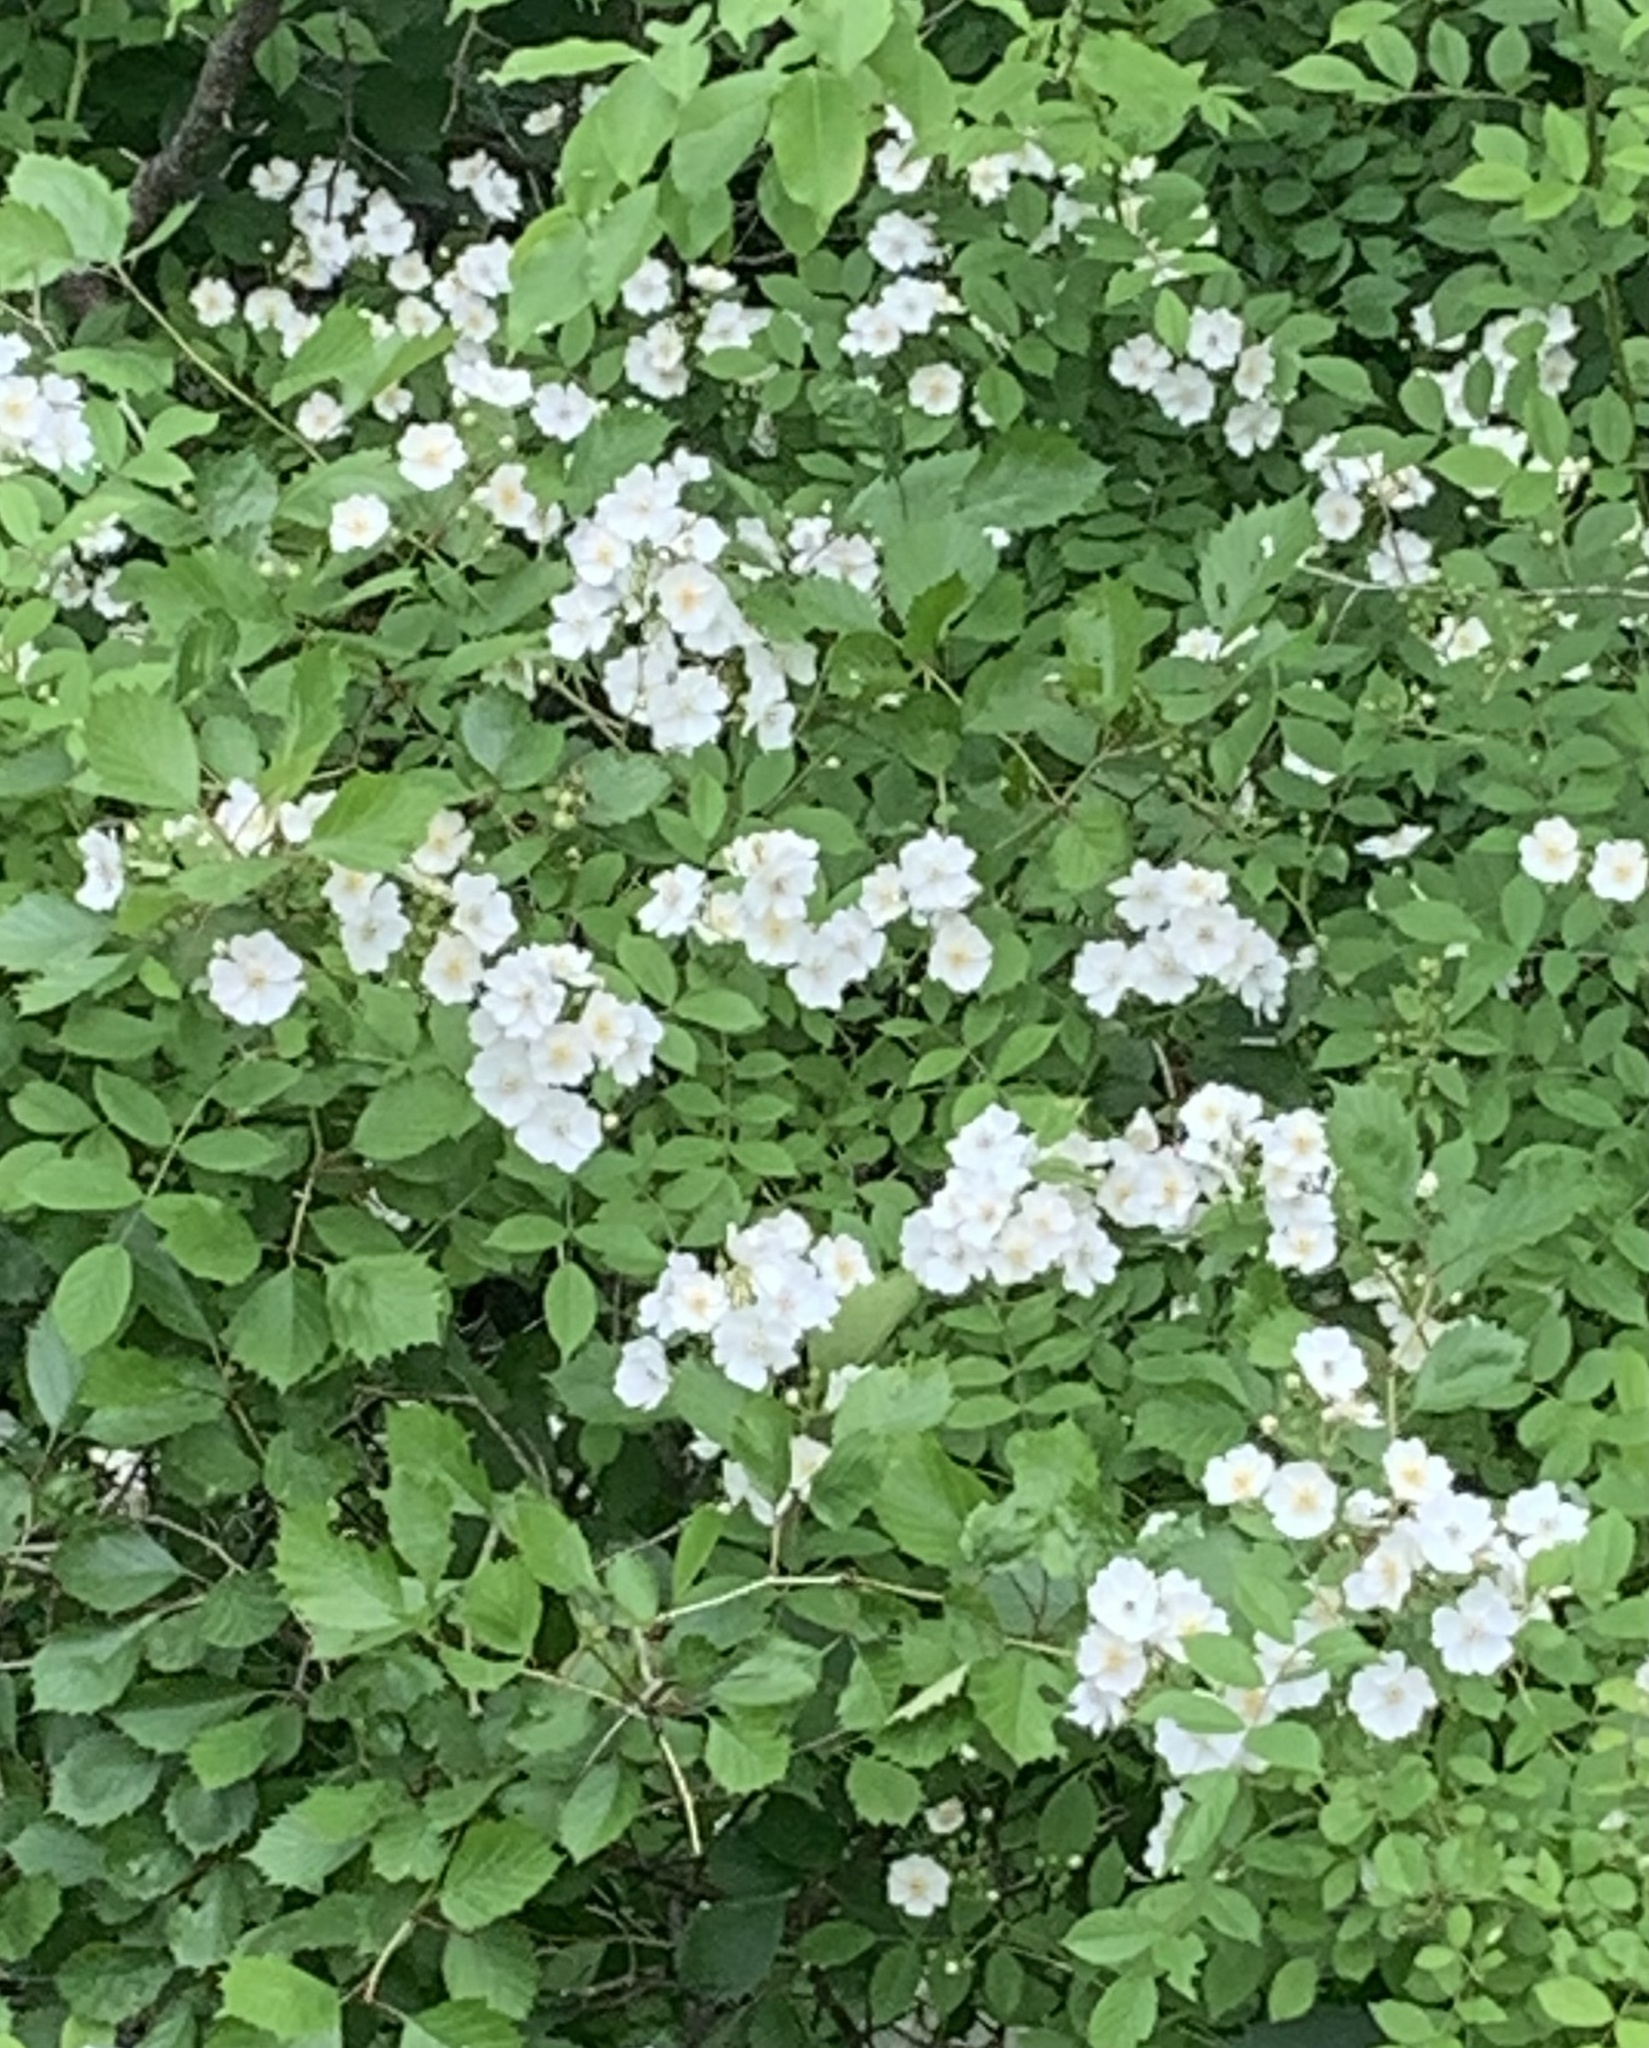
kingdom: Plantae
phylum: Tracheophyta
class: Magnoliopsida
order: Rosales
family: Rosaceae
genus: Rosa
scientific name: Rosa multiflora
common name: Multiflora rose
